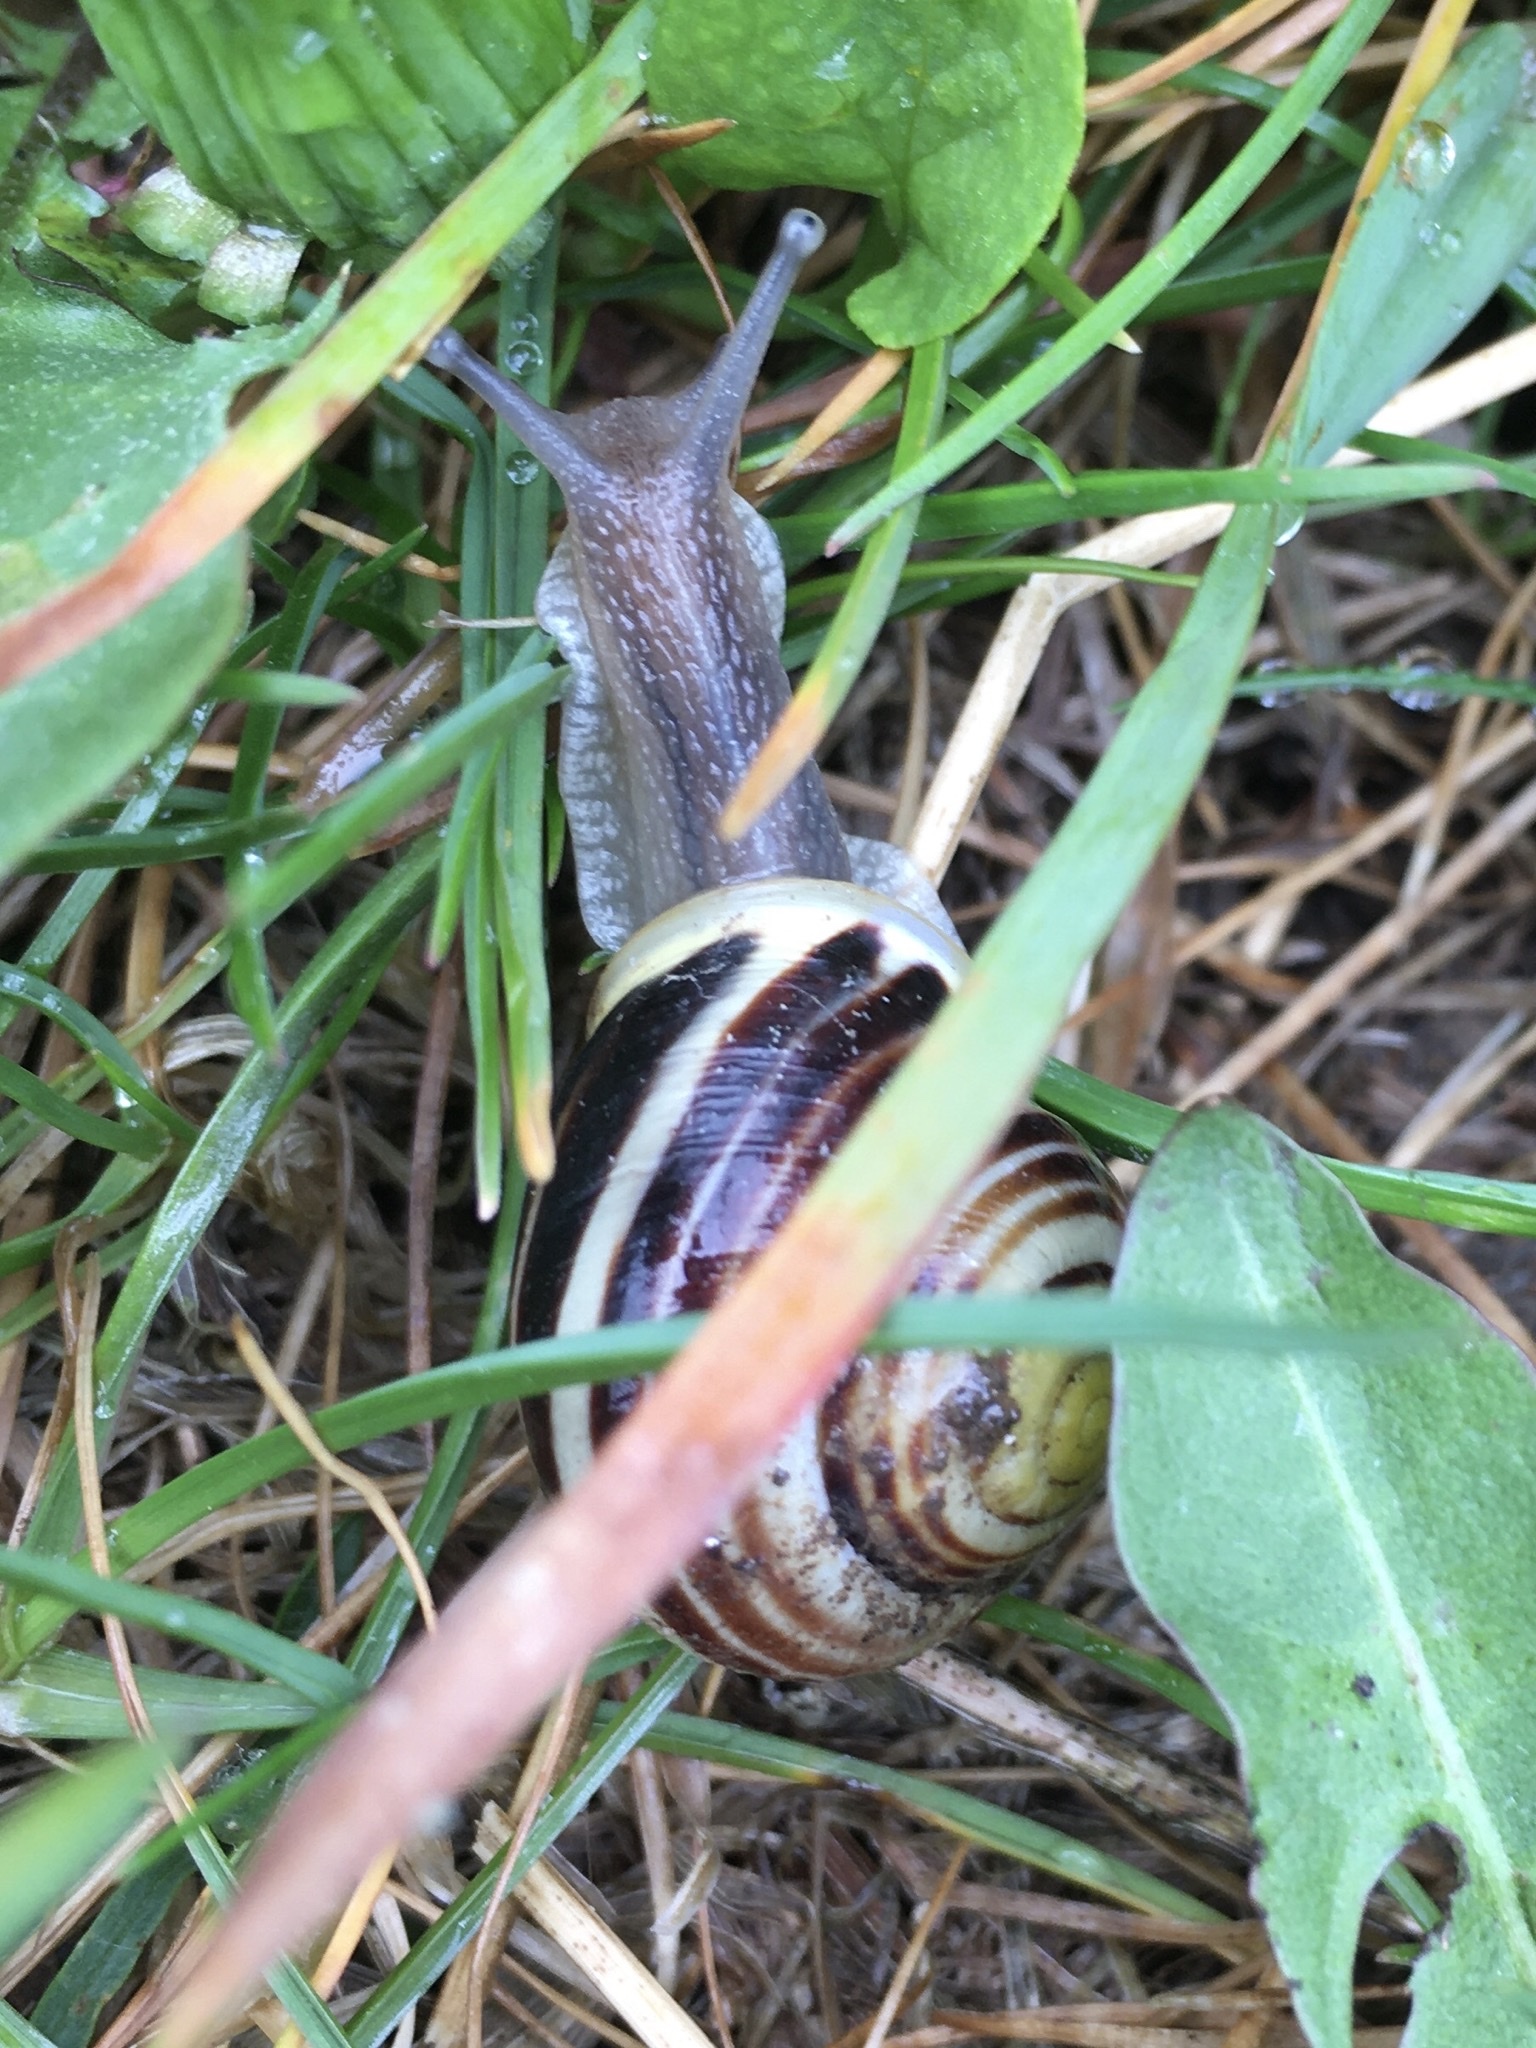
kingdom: Animalia
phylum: Mollusca
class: Gastropoda
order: Stylommatophora
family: Helicidae
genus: Cepaea
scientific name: Cepaea hortensis
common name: White-lip gardensnail
